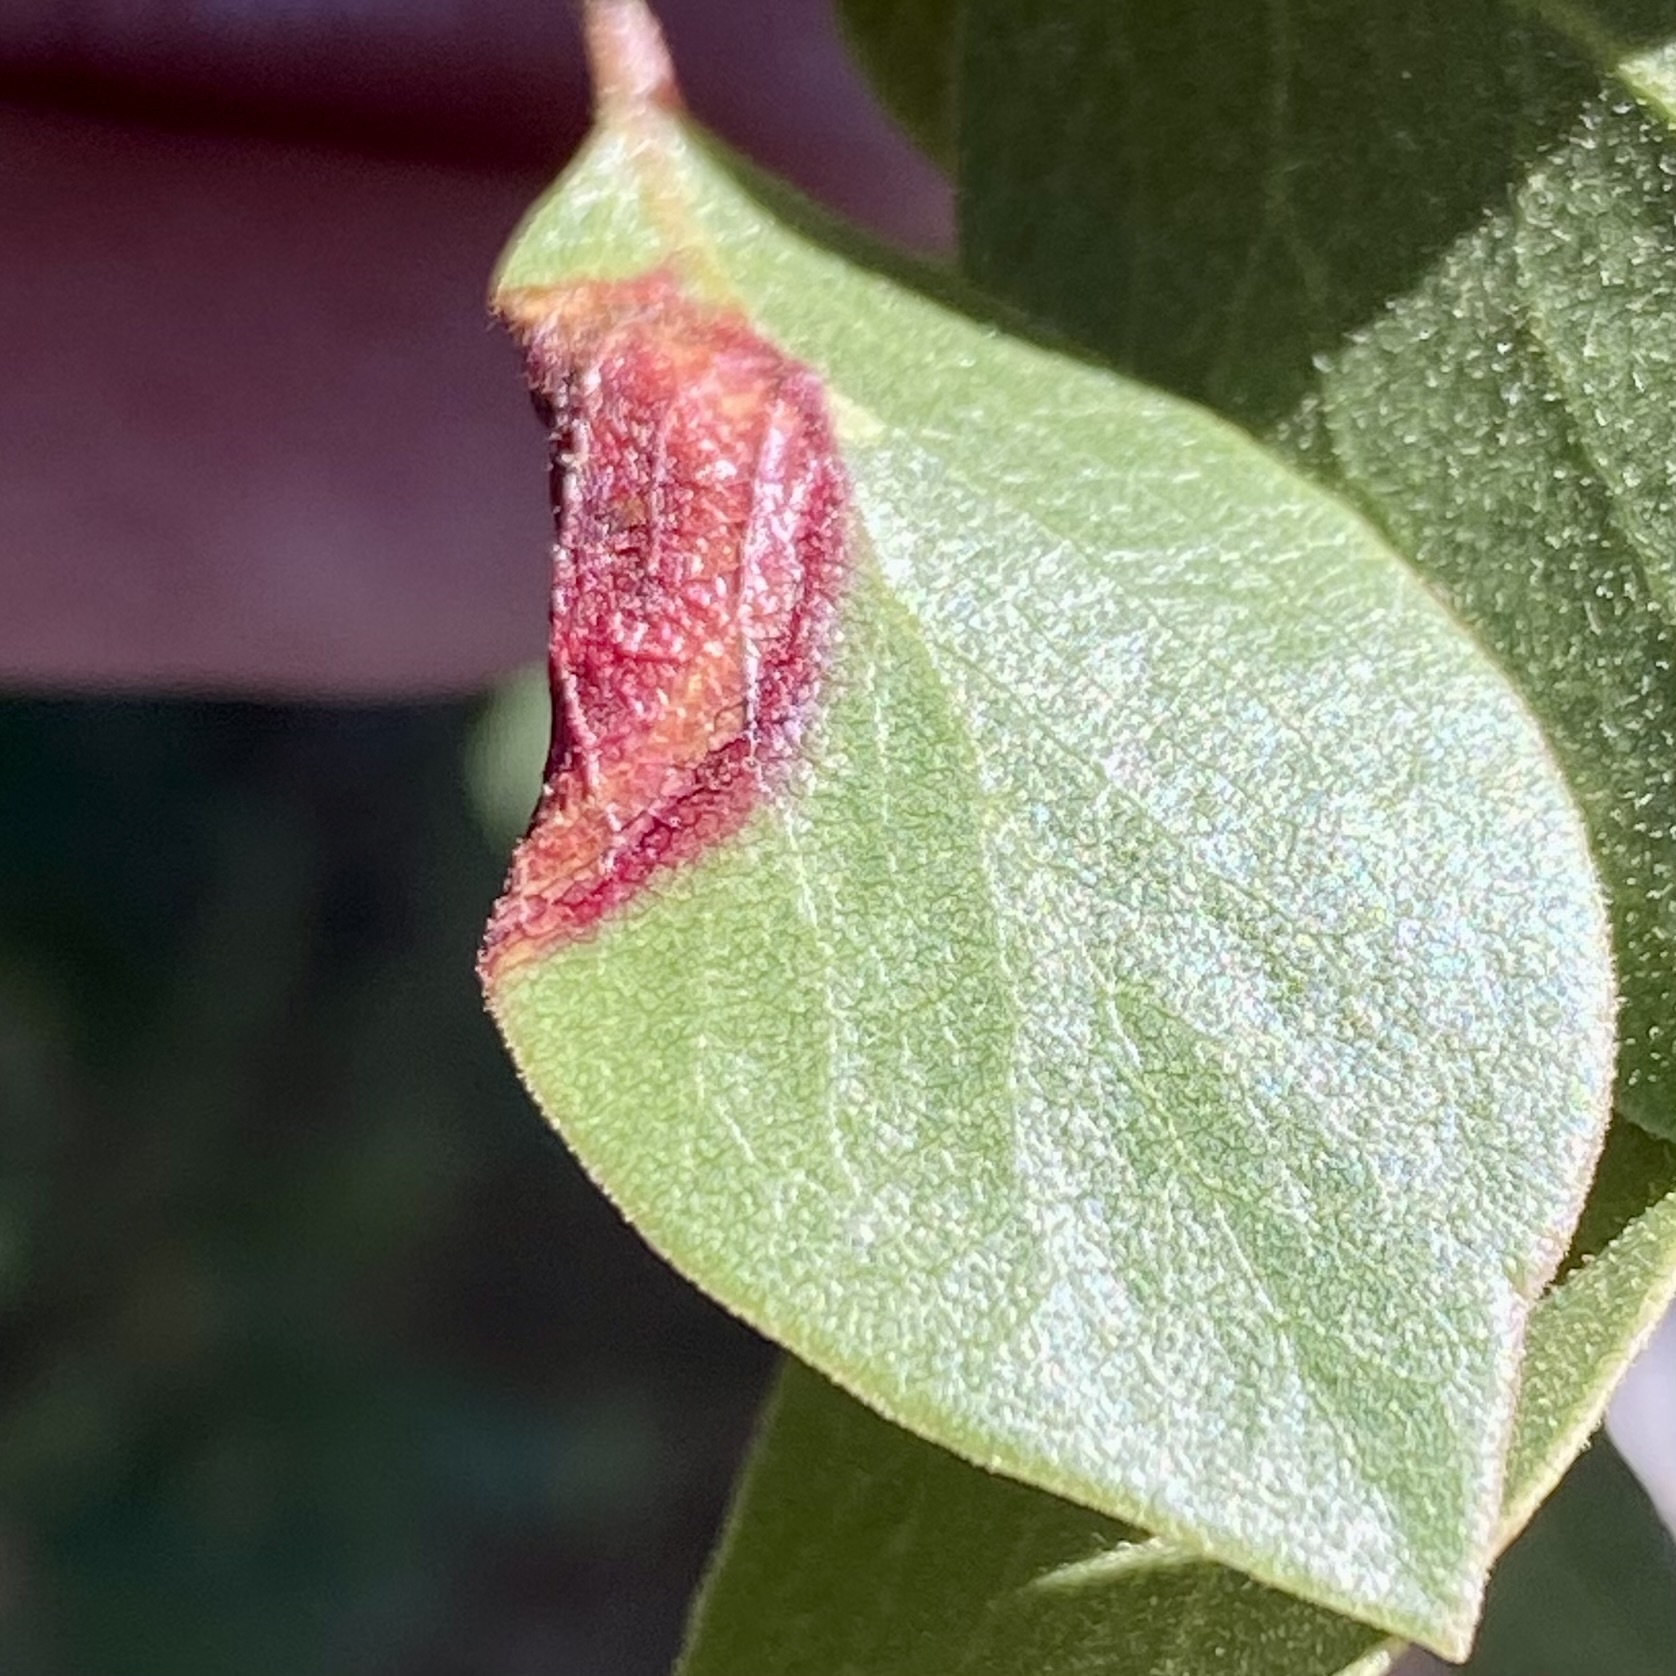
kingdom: Animalia
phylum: Arthropoda
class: Insecta
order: Hemiptera
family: Aphididae
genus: Tamalia
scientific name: Tamalia coweni
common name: Manzanita leafgall aphid
